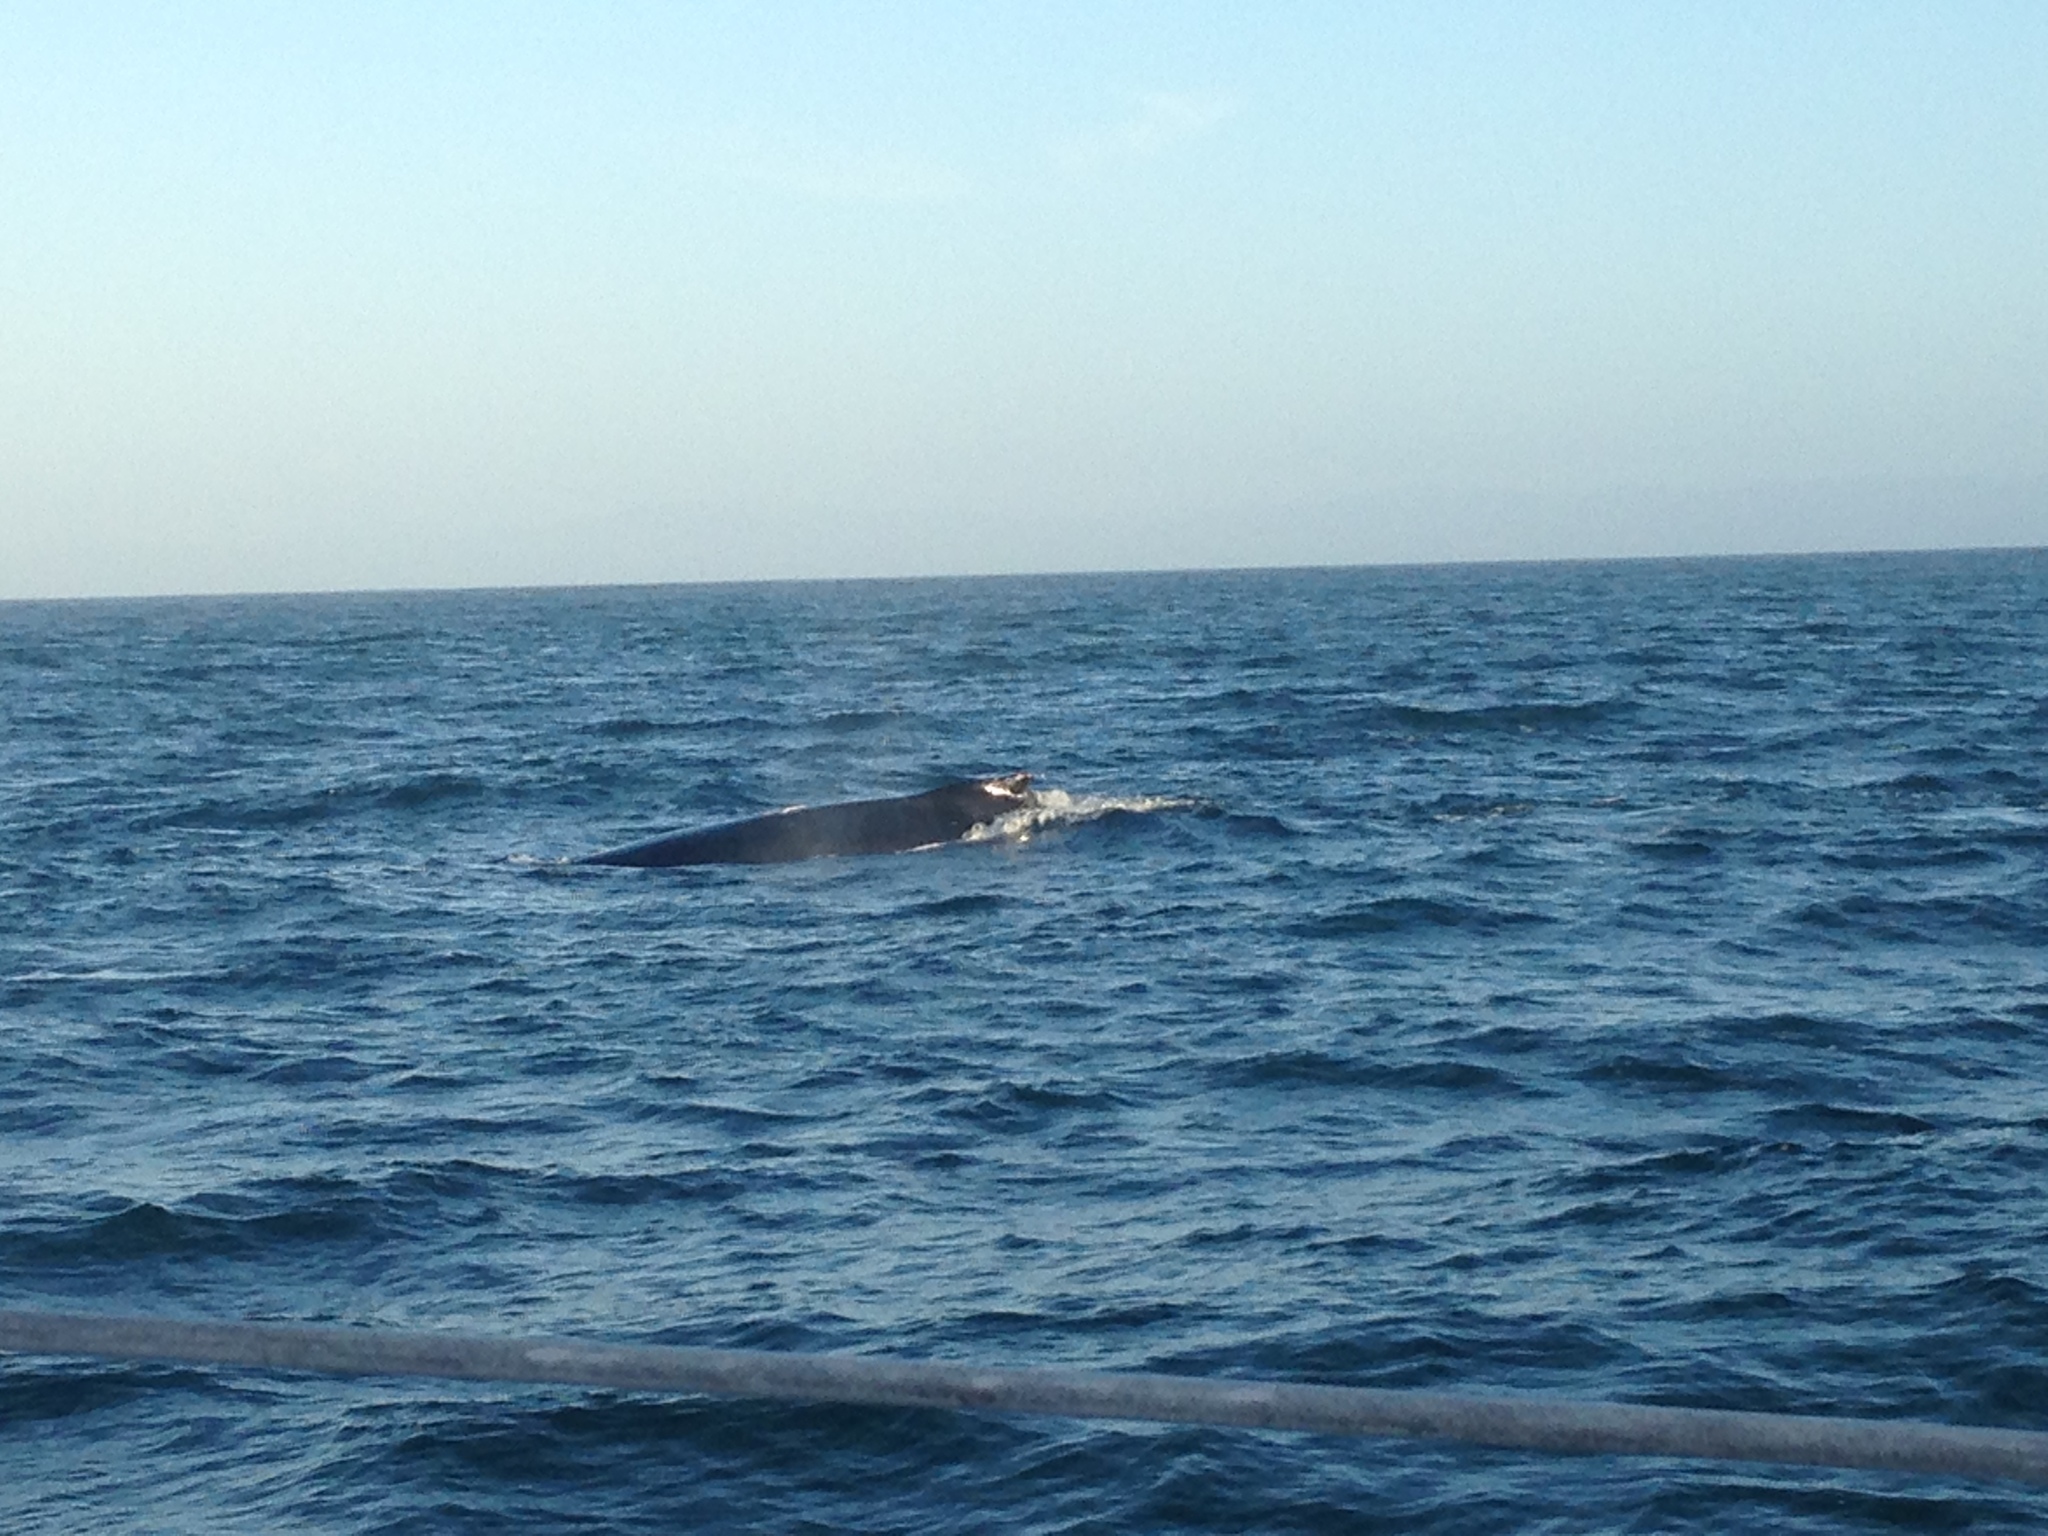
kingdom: Animalia
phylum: Chordata
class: Mammalia
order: Cetacea
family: Balaenopteridae
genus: Megaptera
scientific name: Megaptera novaeangliae
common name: Humpback whale
